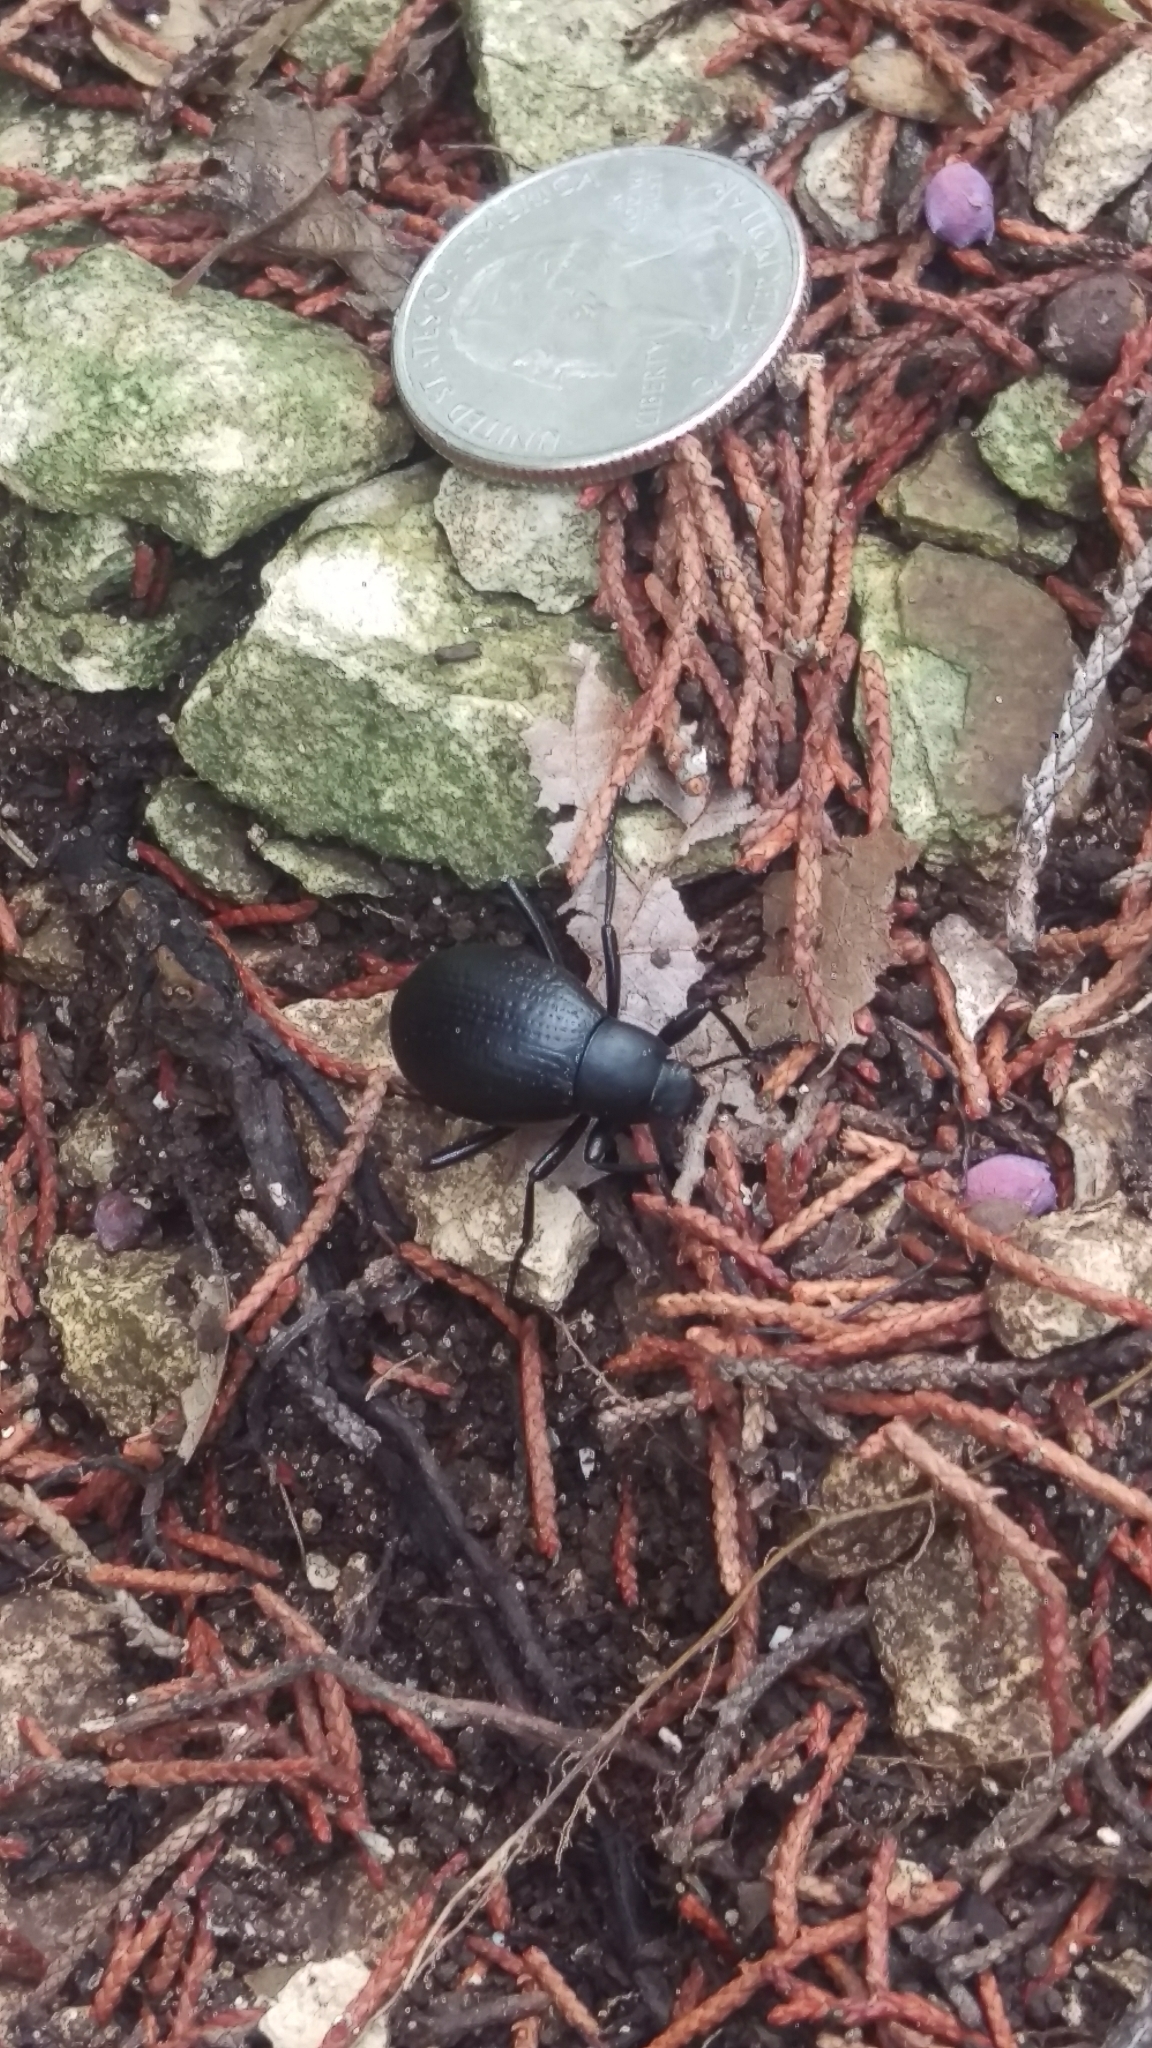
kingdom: Animalia
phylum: Arthropoda
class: Insecta
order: Coleoptera
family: Tenebrionidae
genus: Eleodes
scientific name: Eleodes goryi
